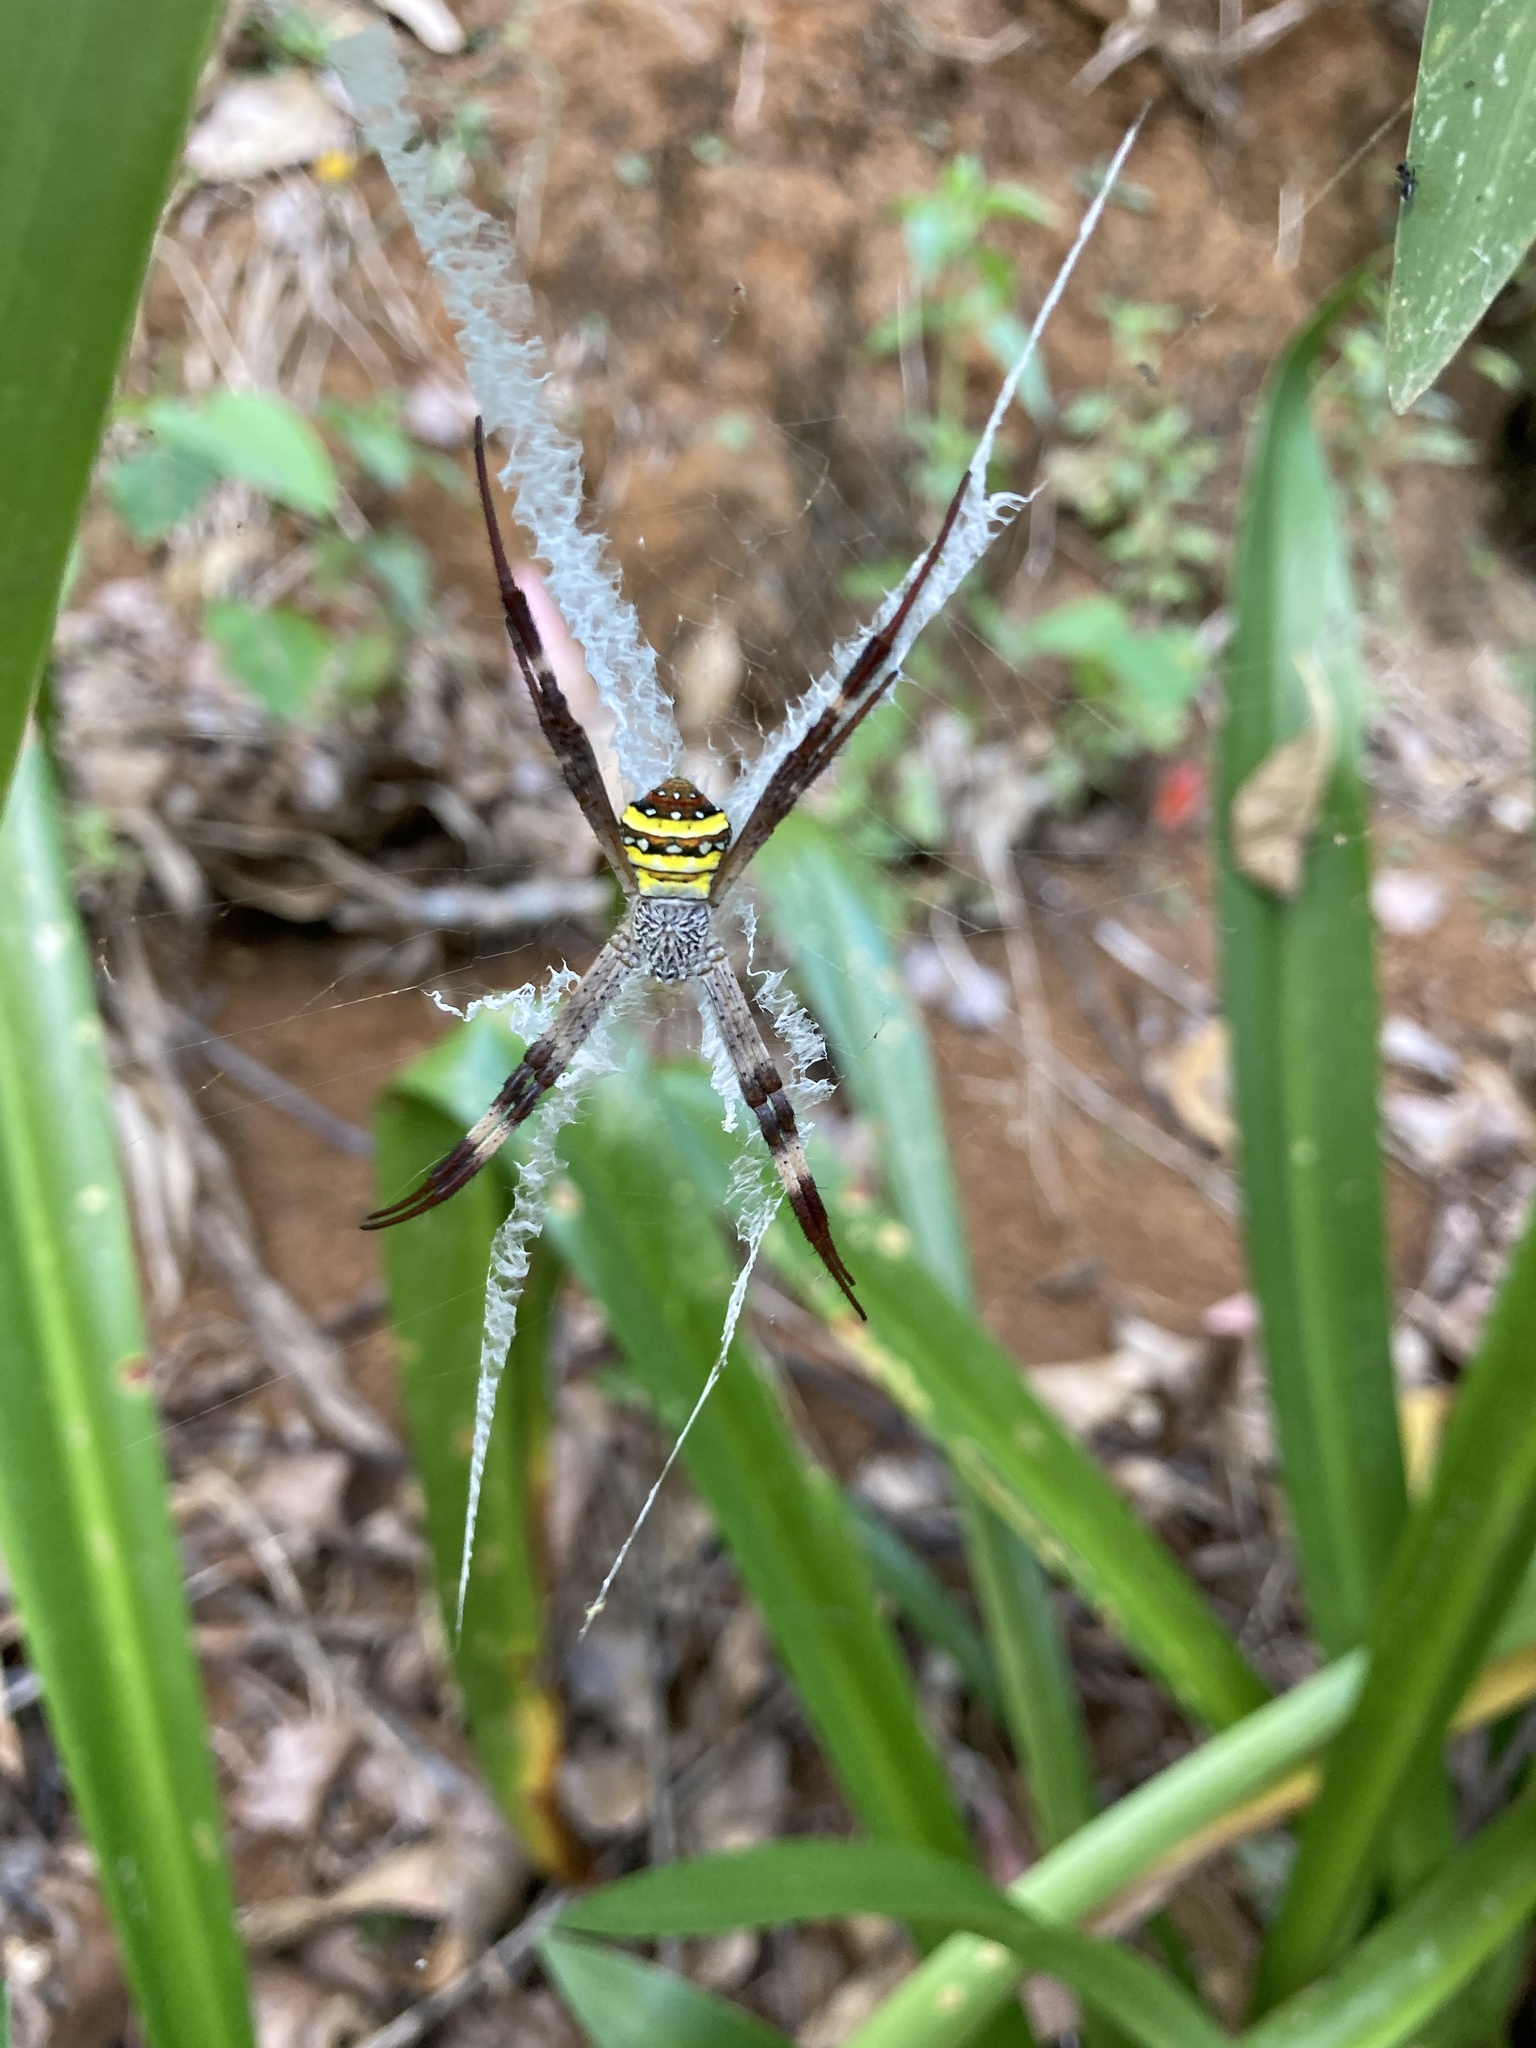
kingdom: Animalia
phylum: Arthropoda
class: Arachnida
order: Araneae
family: Araneidae
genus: Argiope
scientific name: Argiope aetherea
